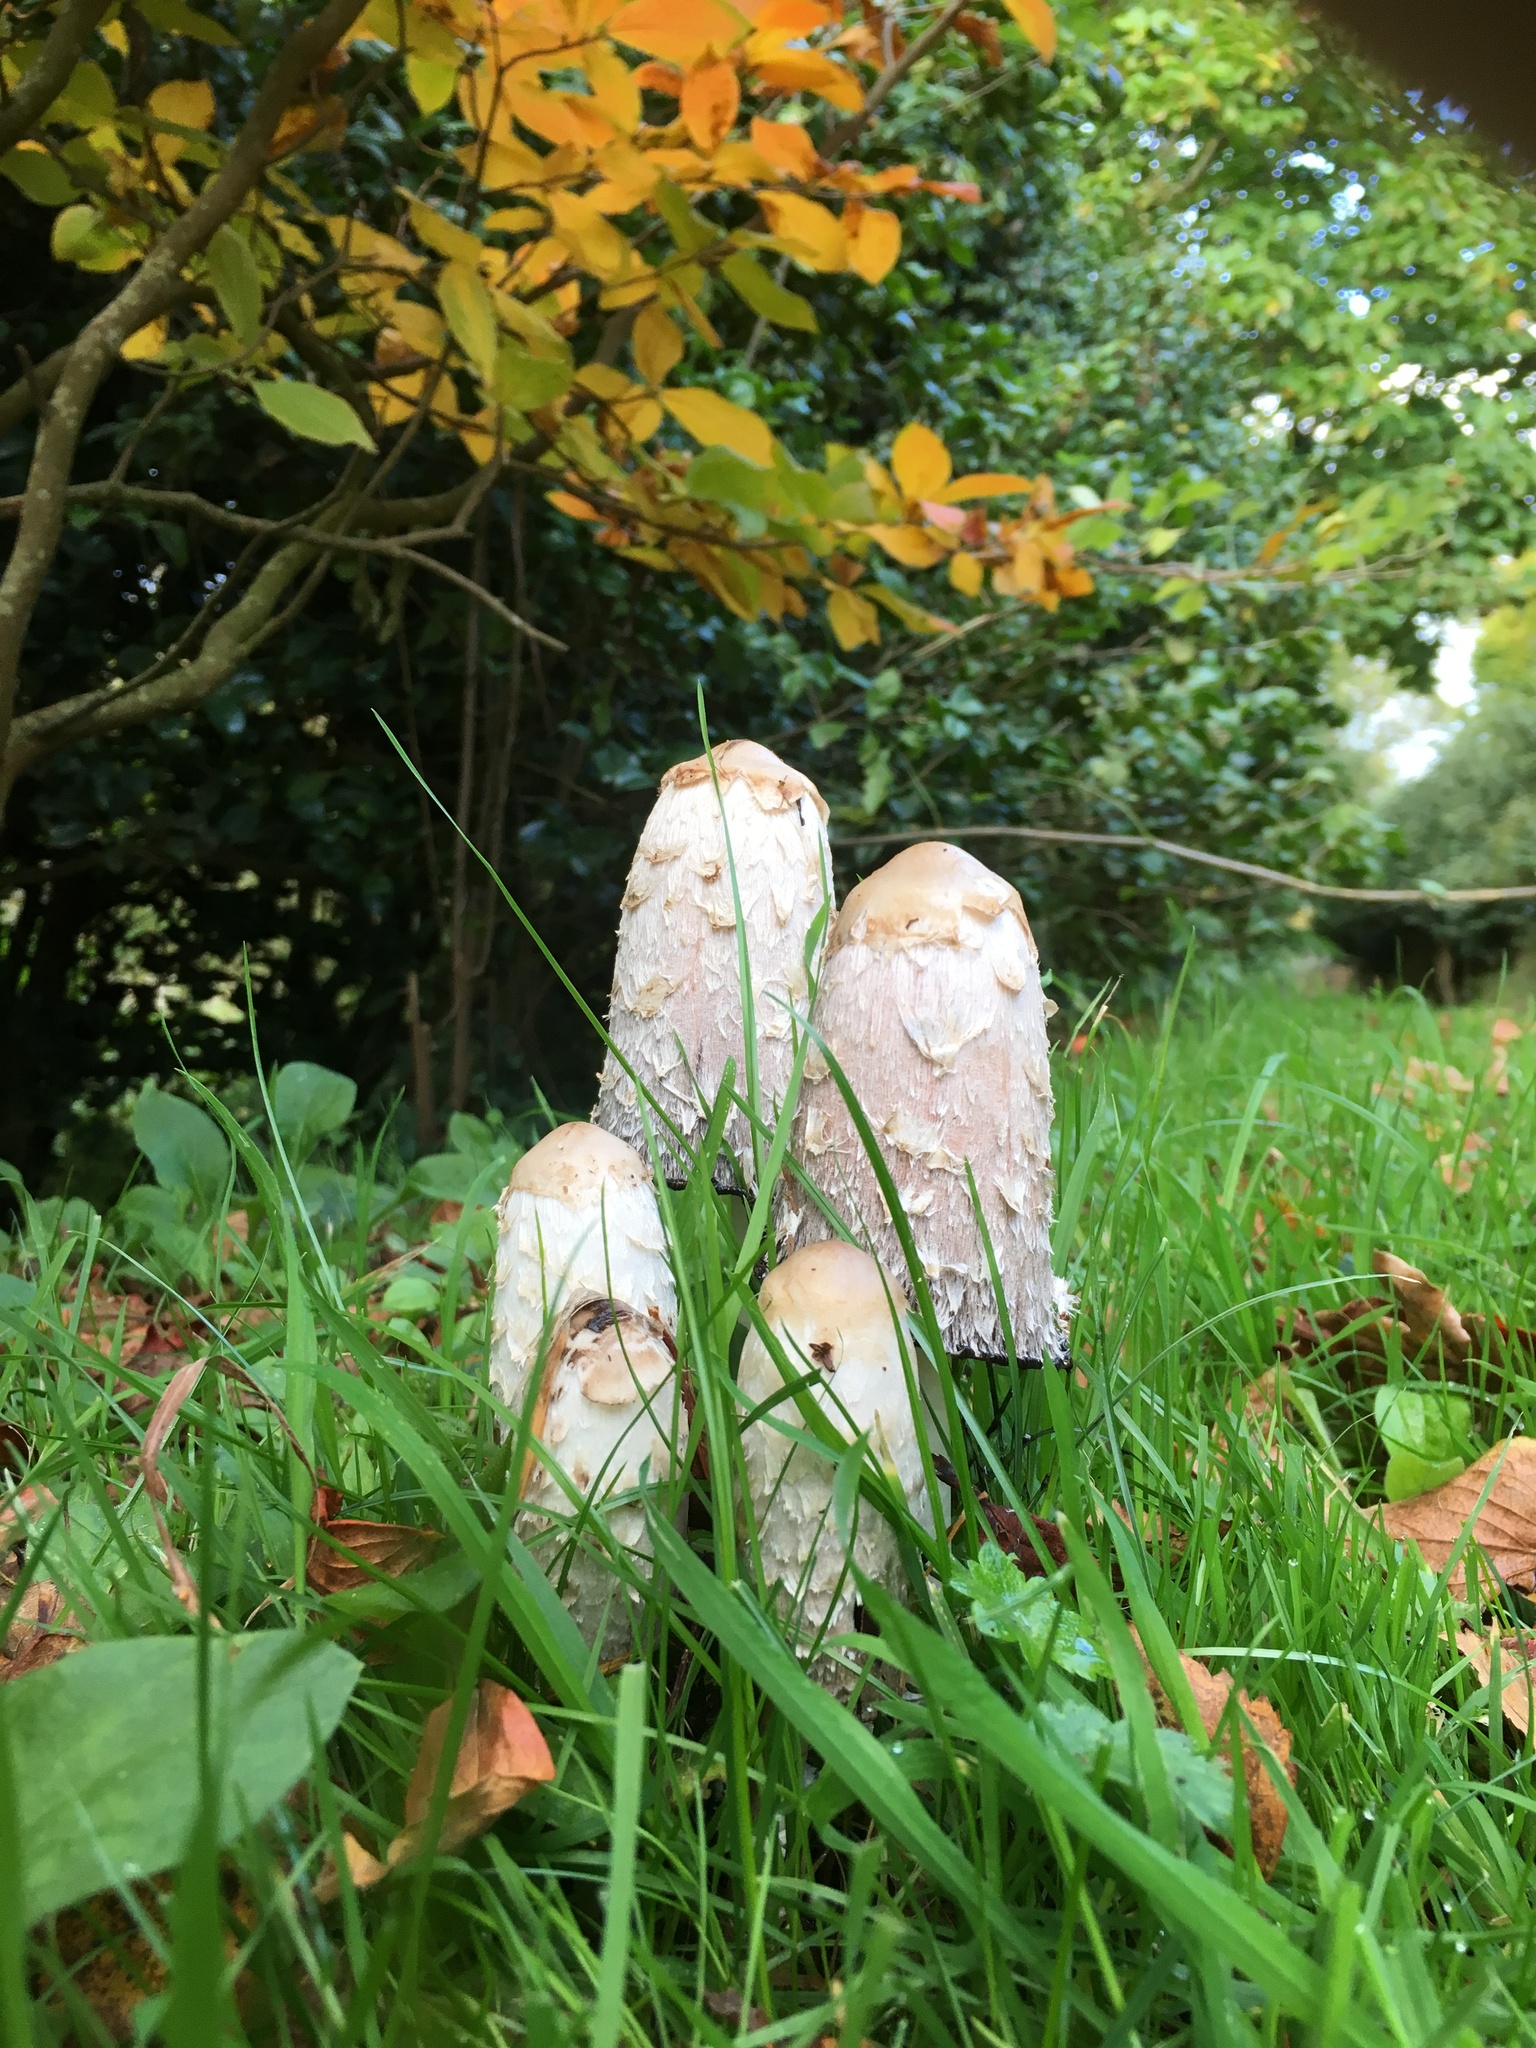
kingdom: Fungi
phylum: Basidiomycota
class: Agaricomycetes
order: Agaricales
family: Agaricaceae
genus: Coprinus
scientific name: Coprinus comatus
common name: Lawyer's wig
